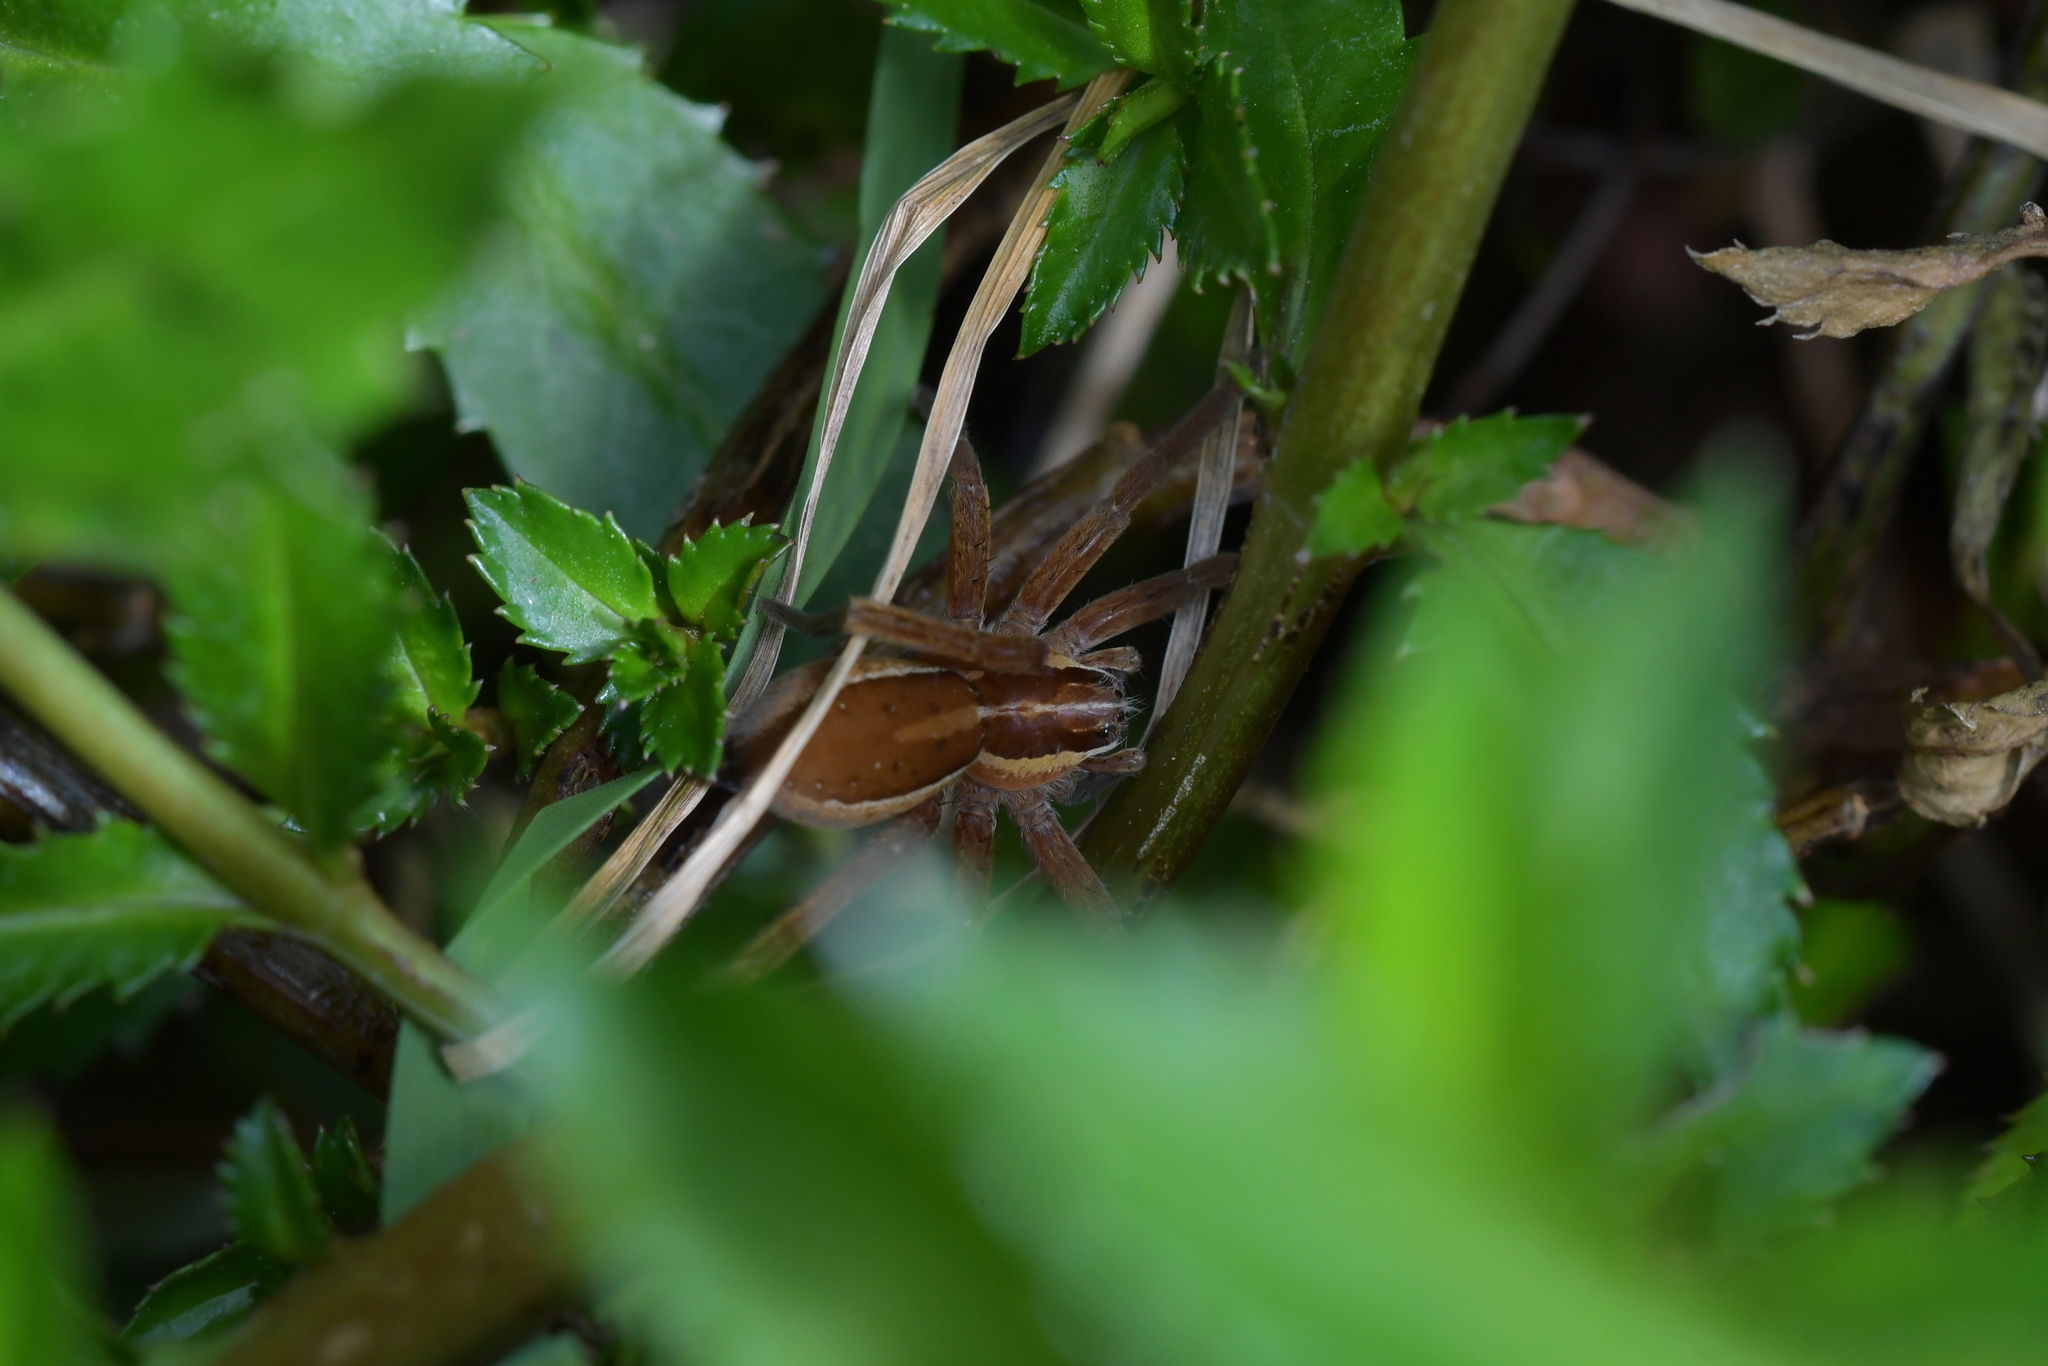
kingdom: Animalia
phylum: Arthropoda
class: Arachnida
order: Araneae
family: Pisauridae
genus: Dolomedes
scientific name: Dolomedes minor
